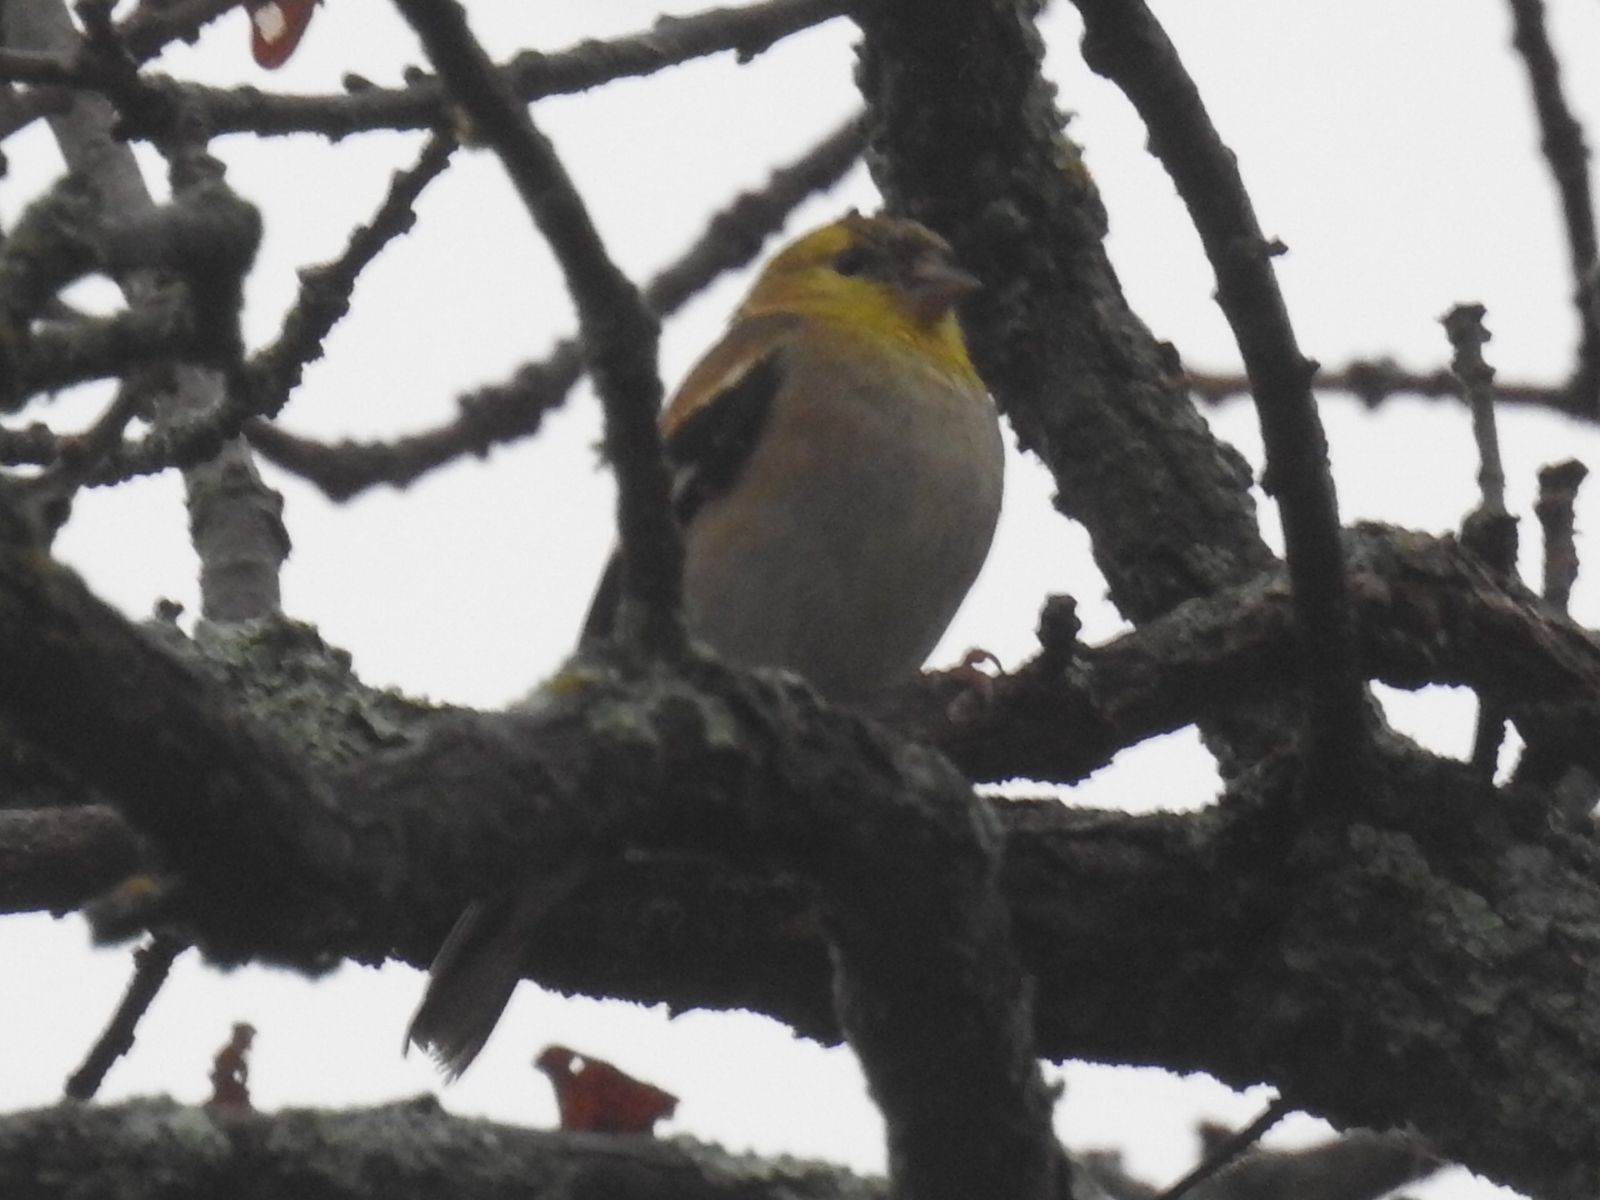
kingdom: Animalia
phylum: Chordata
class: Aves
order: Passeriformes
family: Fringillidae
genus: Spinus
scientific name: Spinus tristis
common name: American goldfinch
